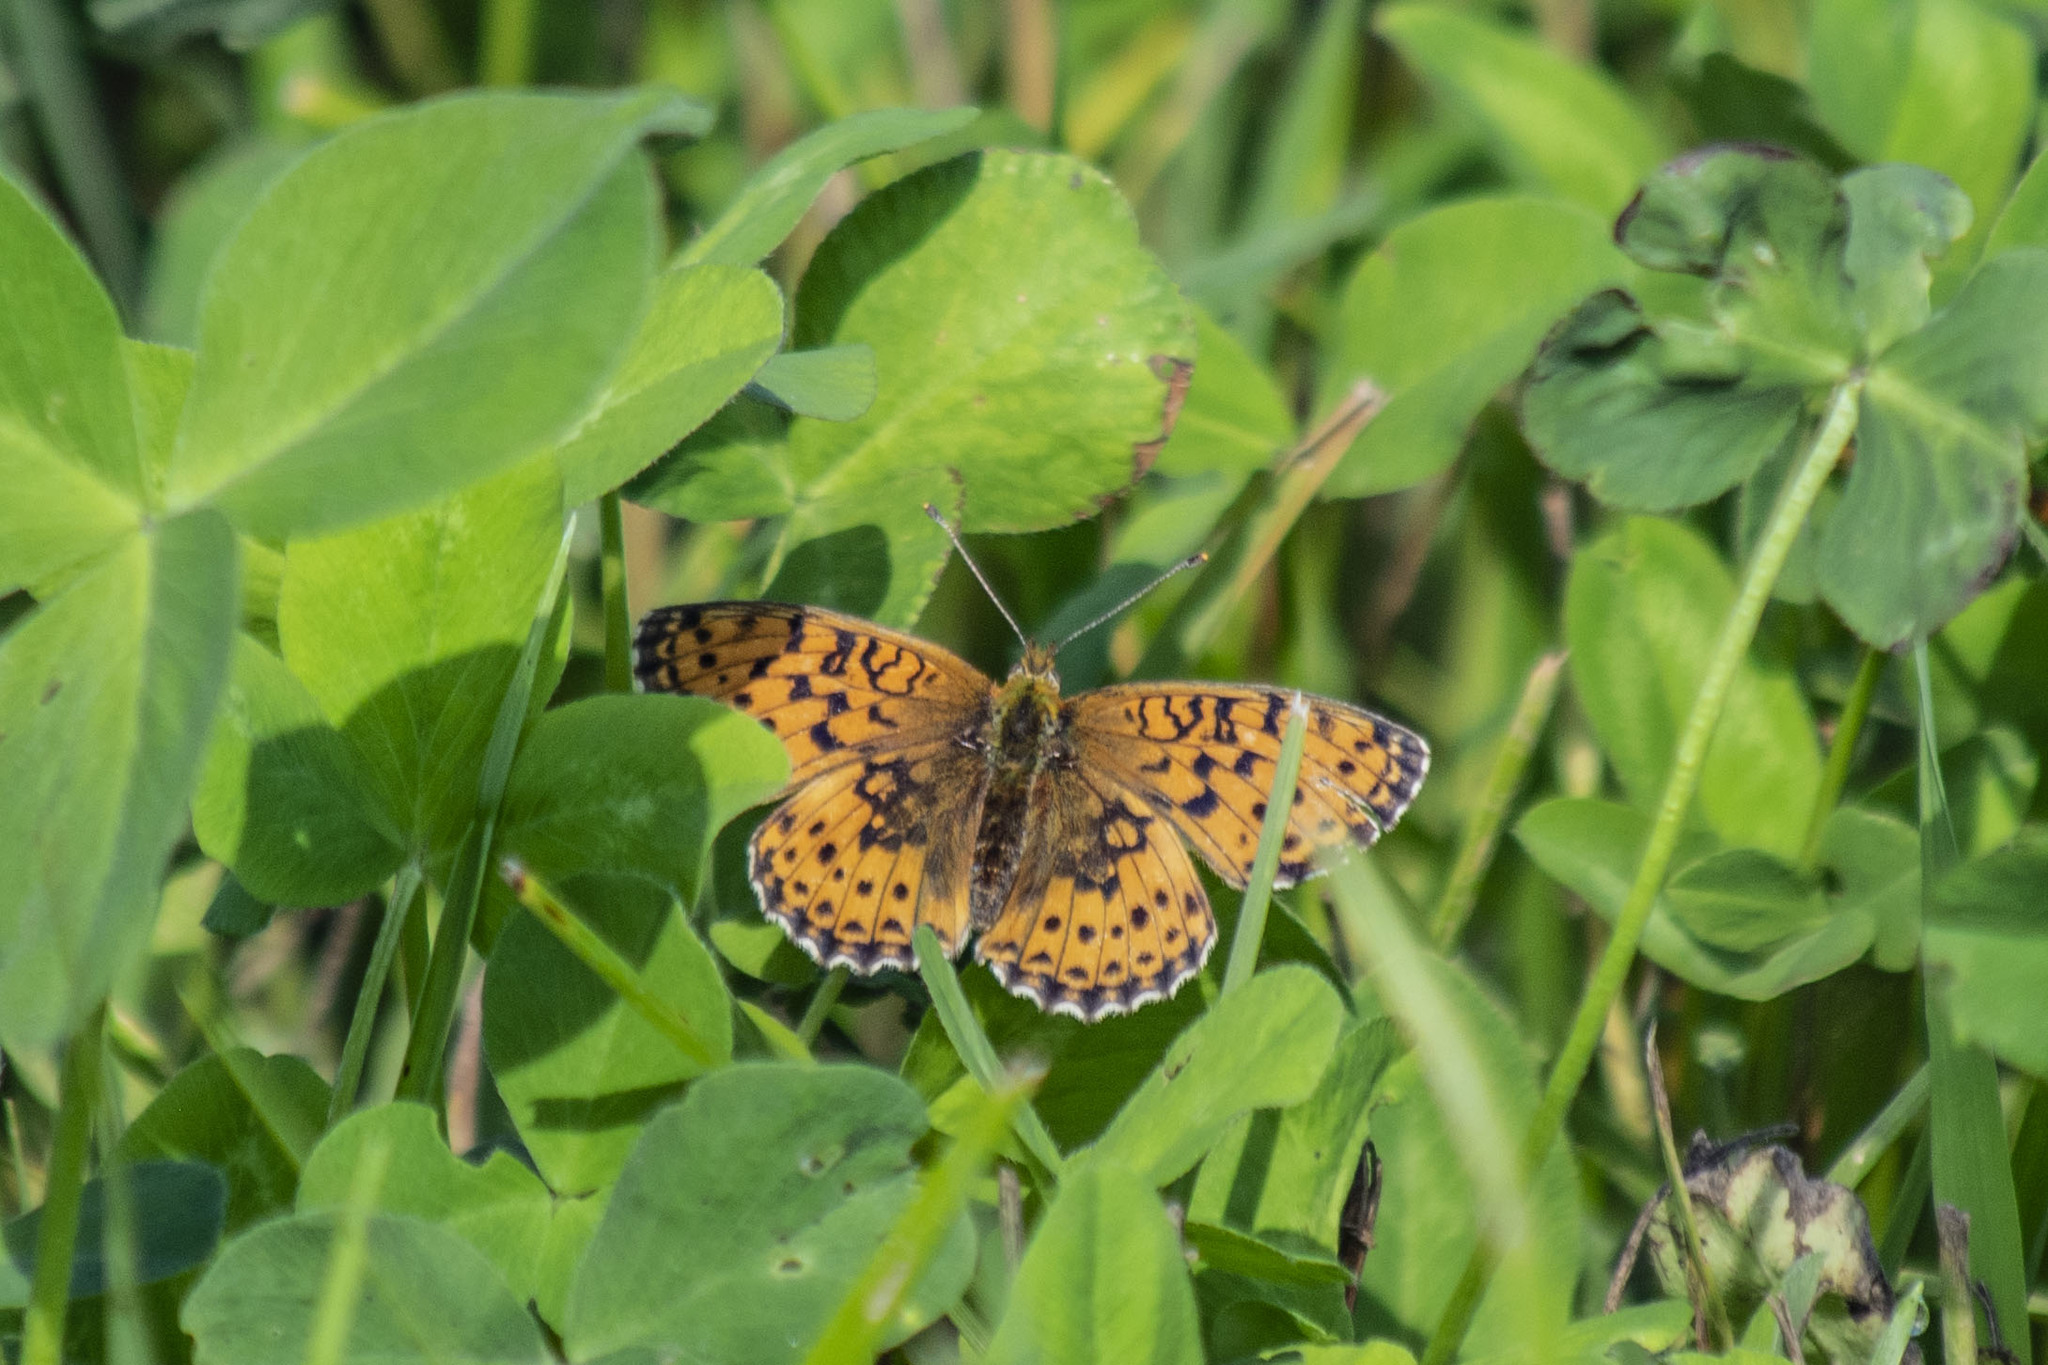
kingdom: Animalia
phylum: Arthropoda
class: Insecta
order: Lepidoptera
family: Nymphalidae
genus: Brenthis
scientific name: Brenthis ino
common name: Lesser marbled fritillary
